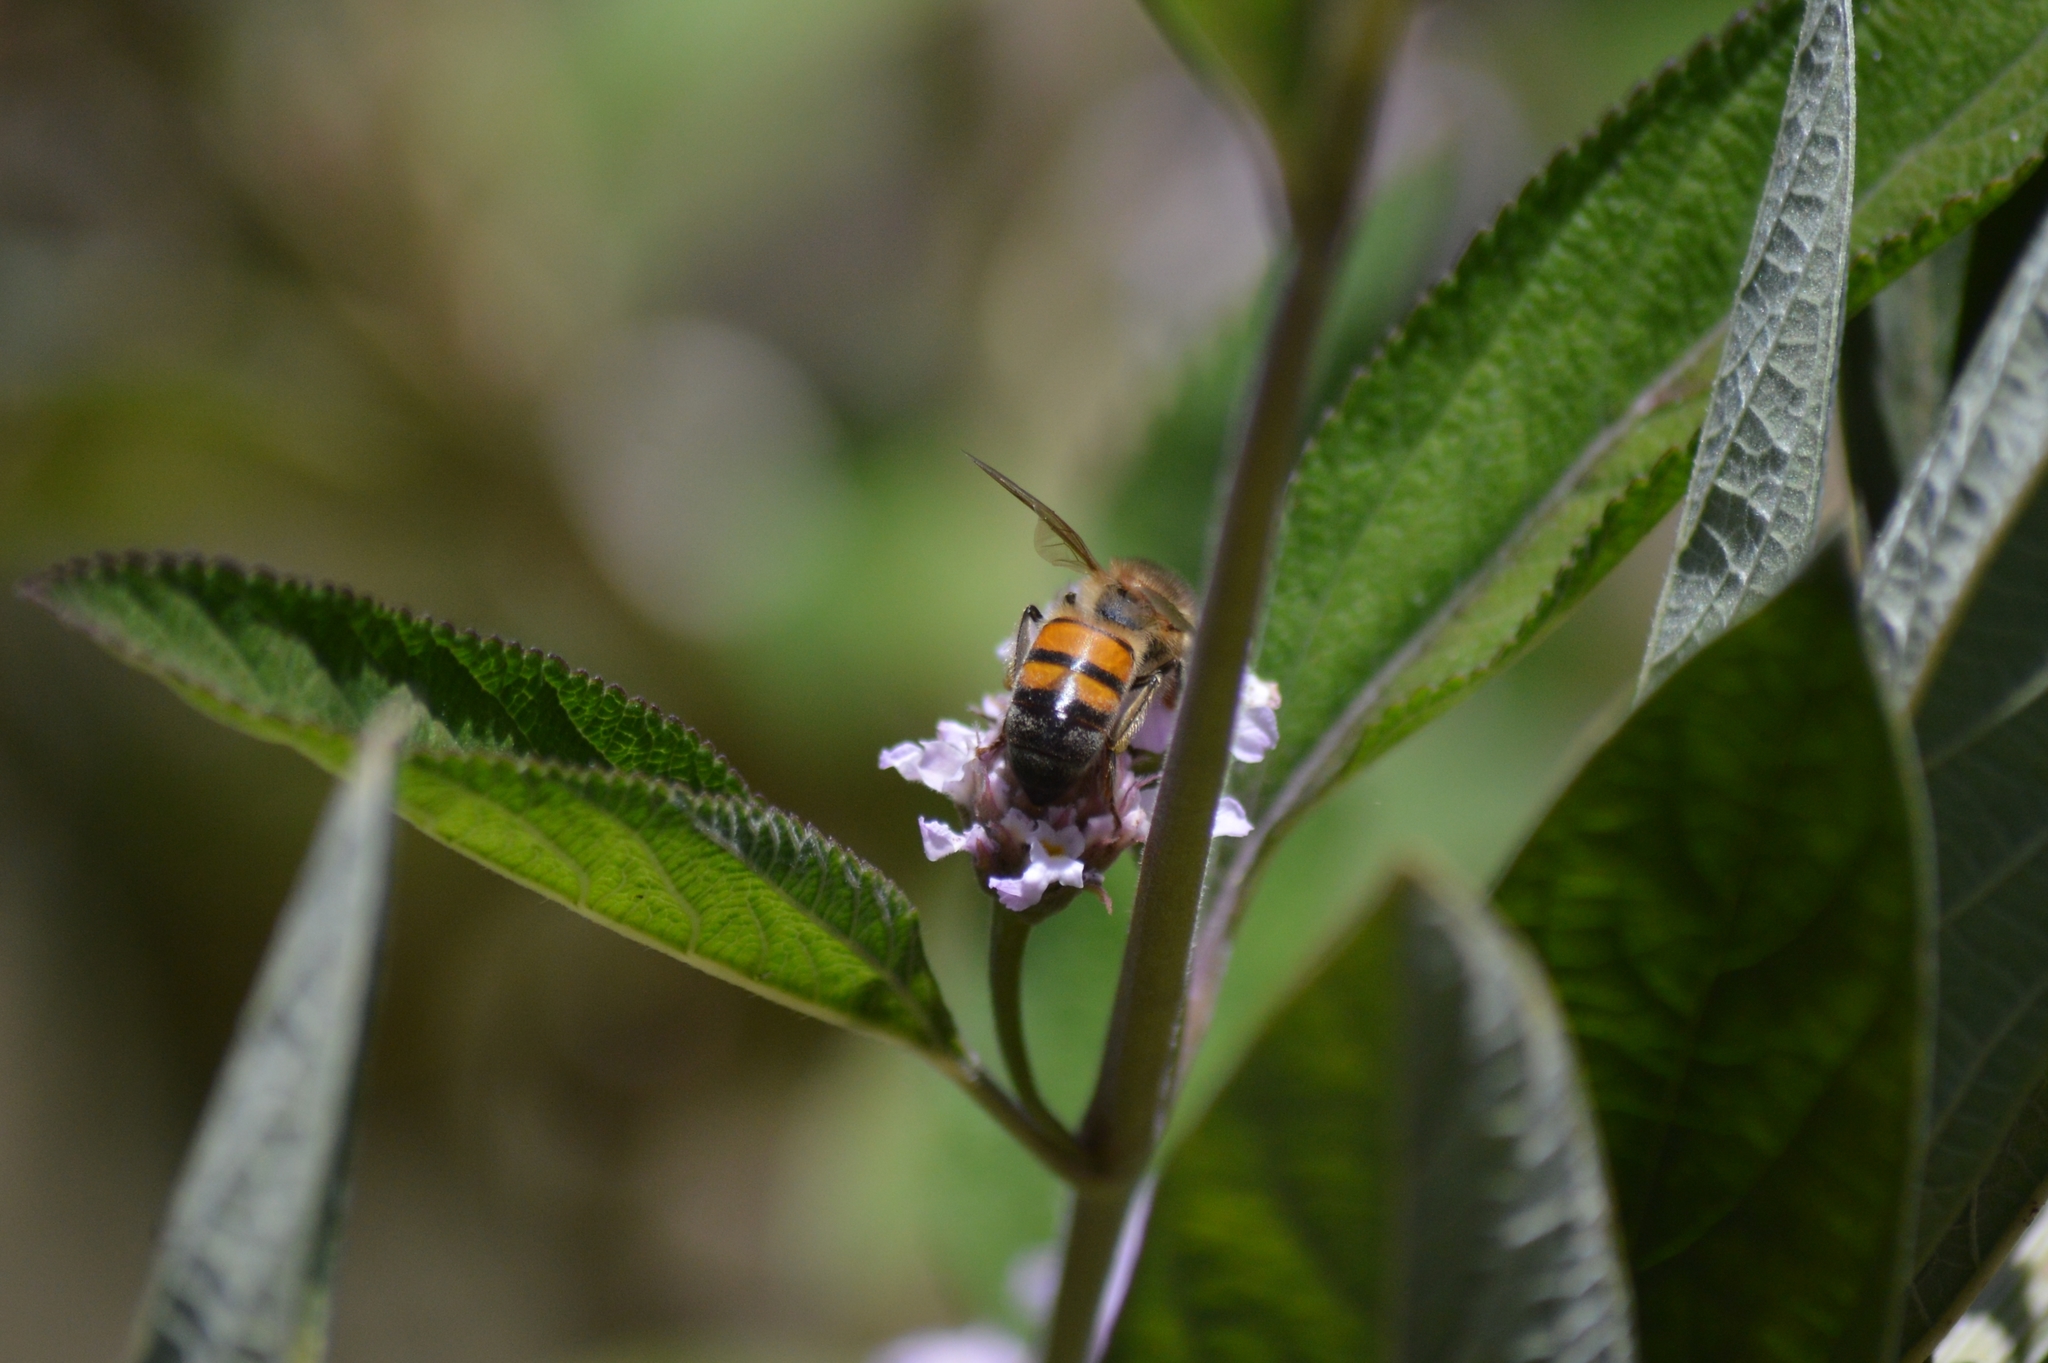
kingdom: Animalia
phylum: Arthropoda
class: Insecta
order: Hymenoptera
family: Apidae
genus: Apis
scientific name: Apis mellifera
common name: Honey bee
